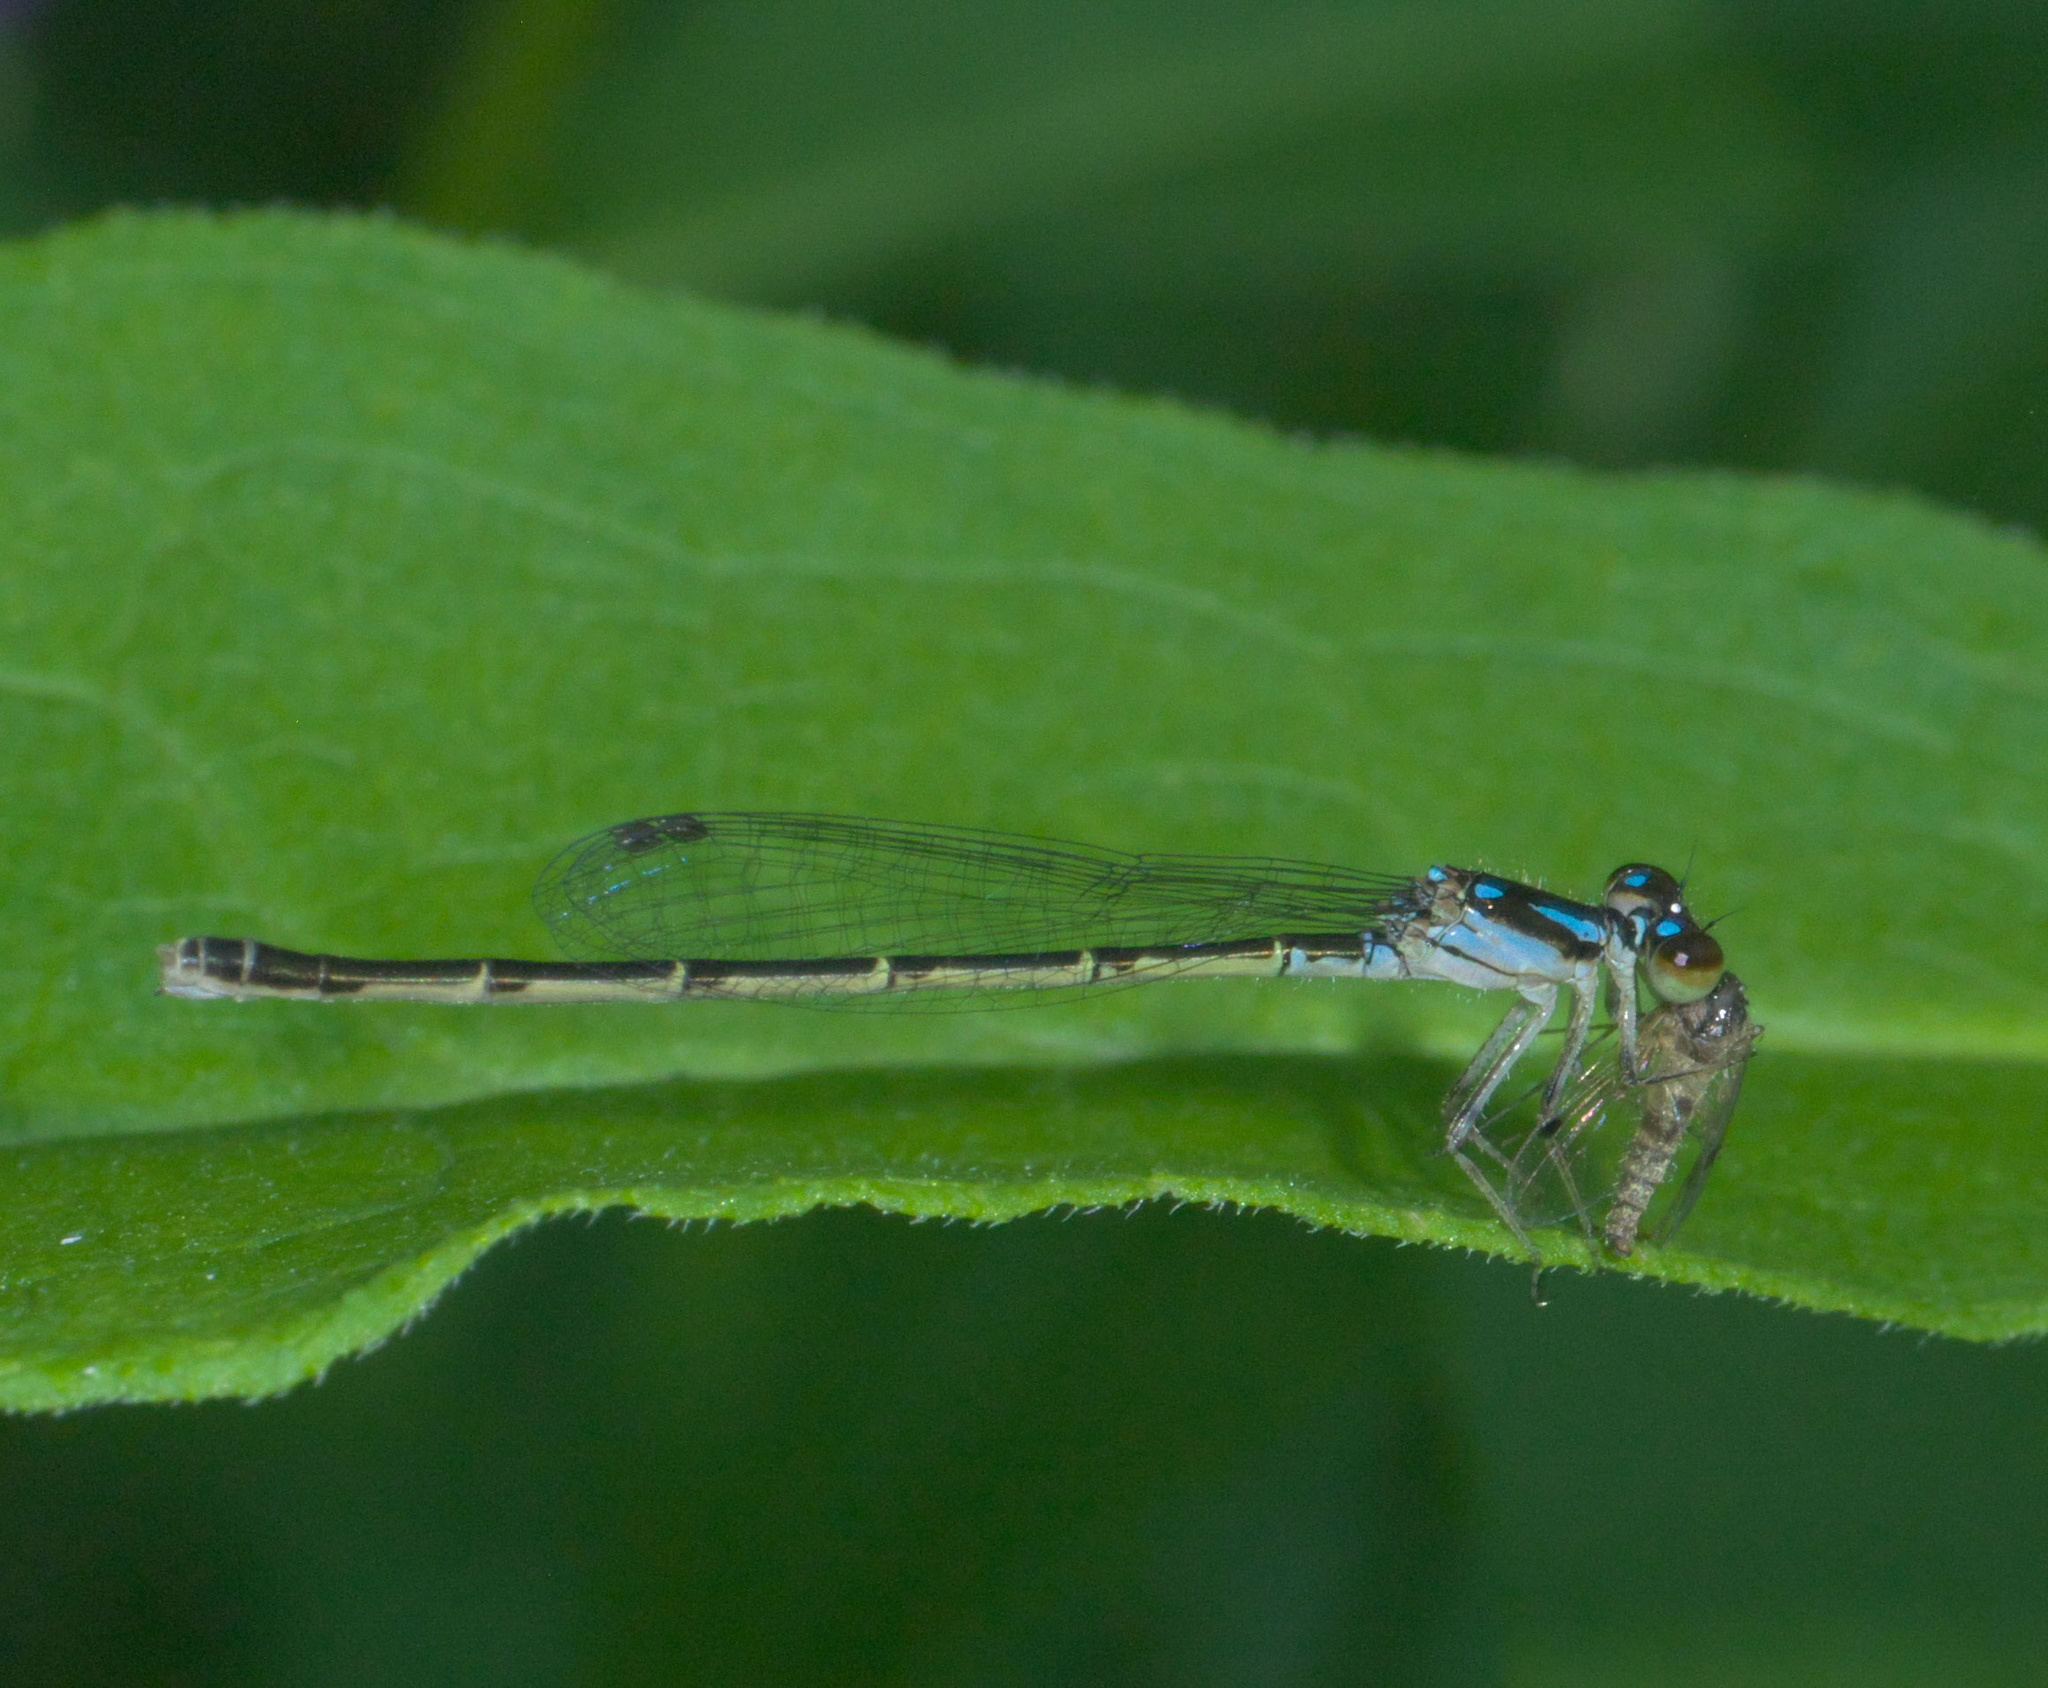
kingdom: Animalia
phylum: Arthropoda
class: Insecta
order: Odonata
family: Coenagrionidae
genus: Ischnura
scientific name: Ischnura posita
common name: Fragile forktail
